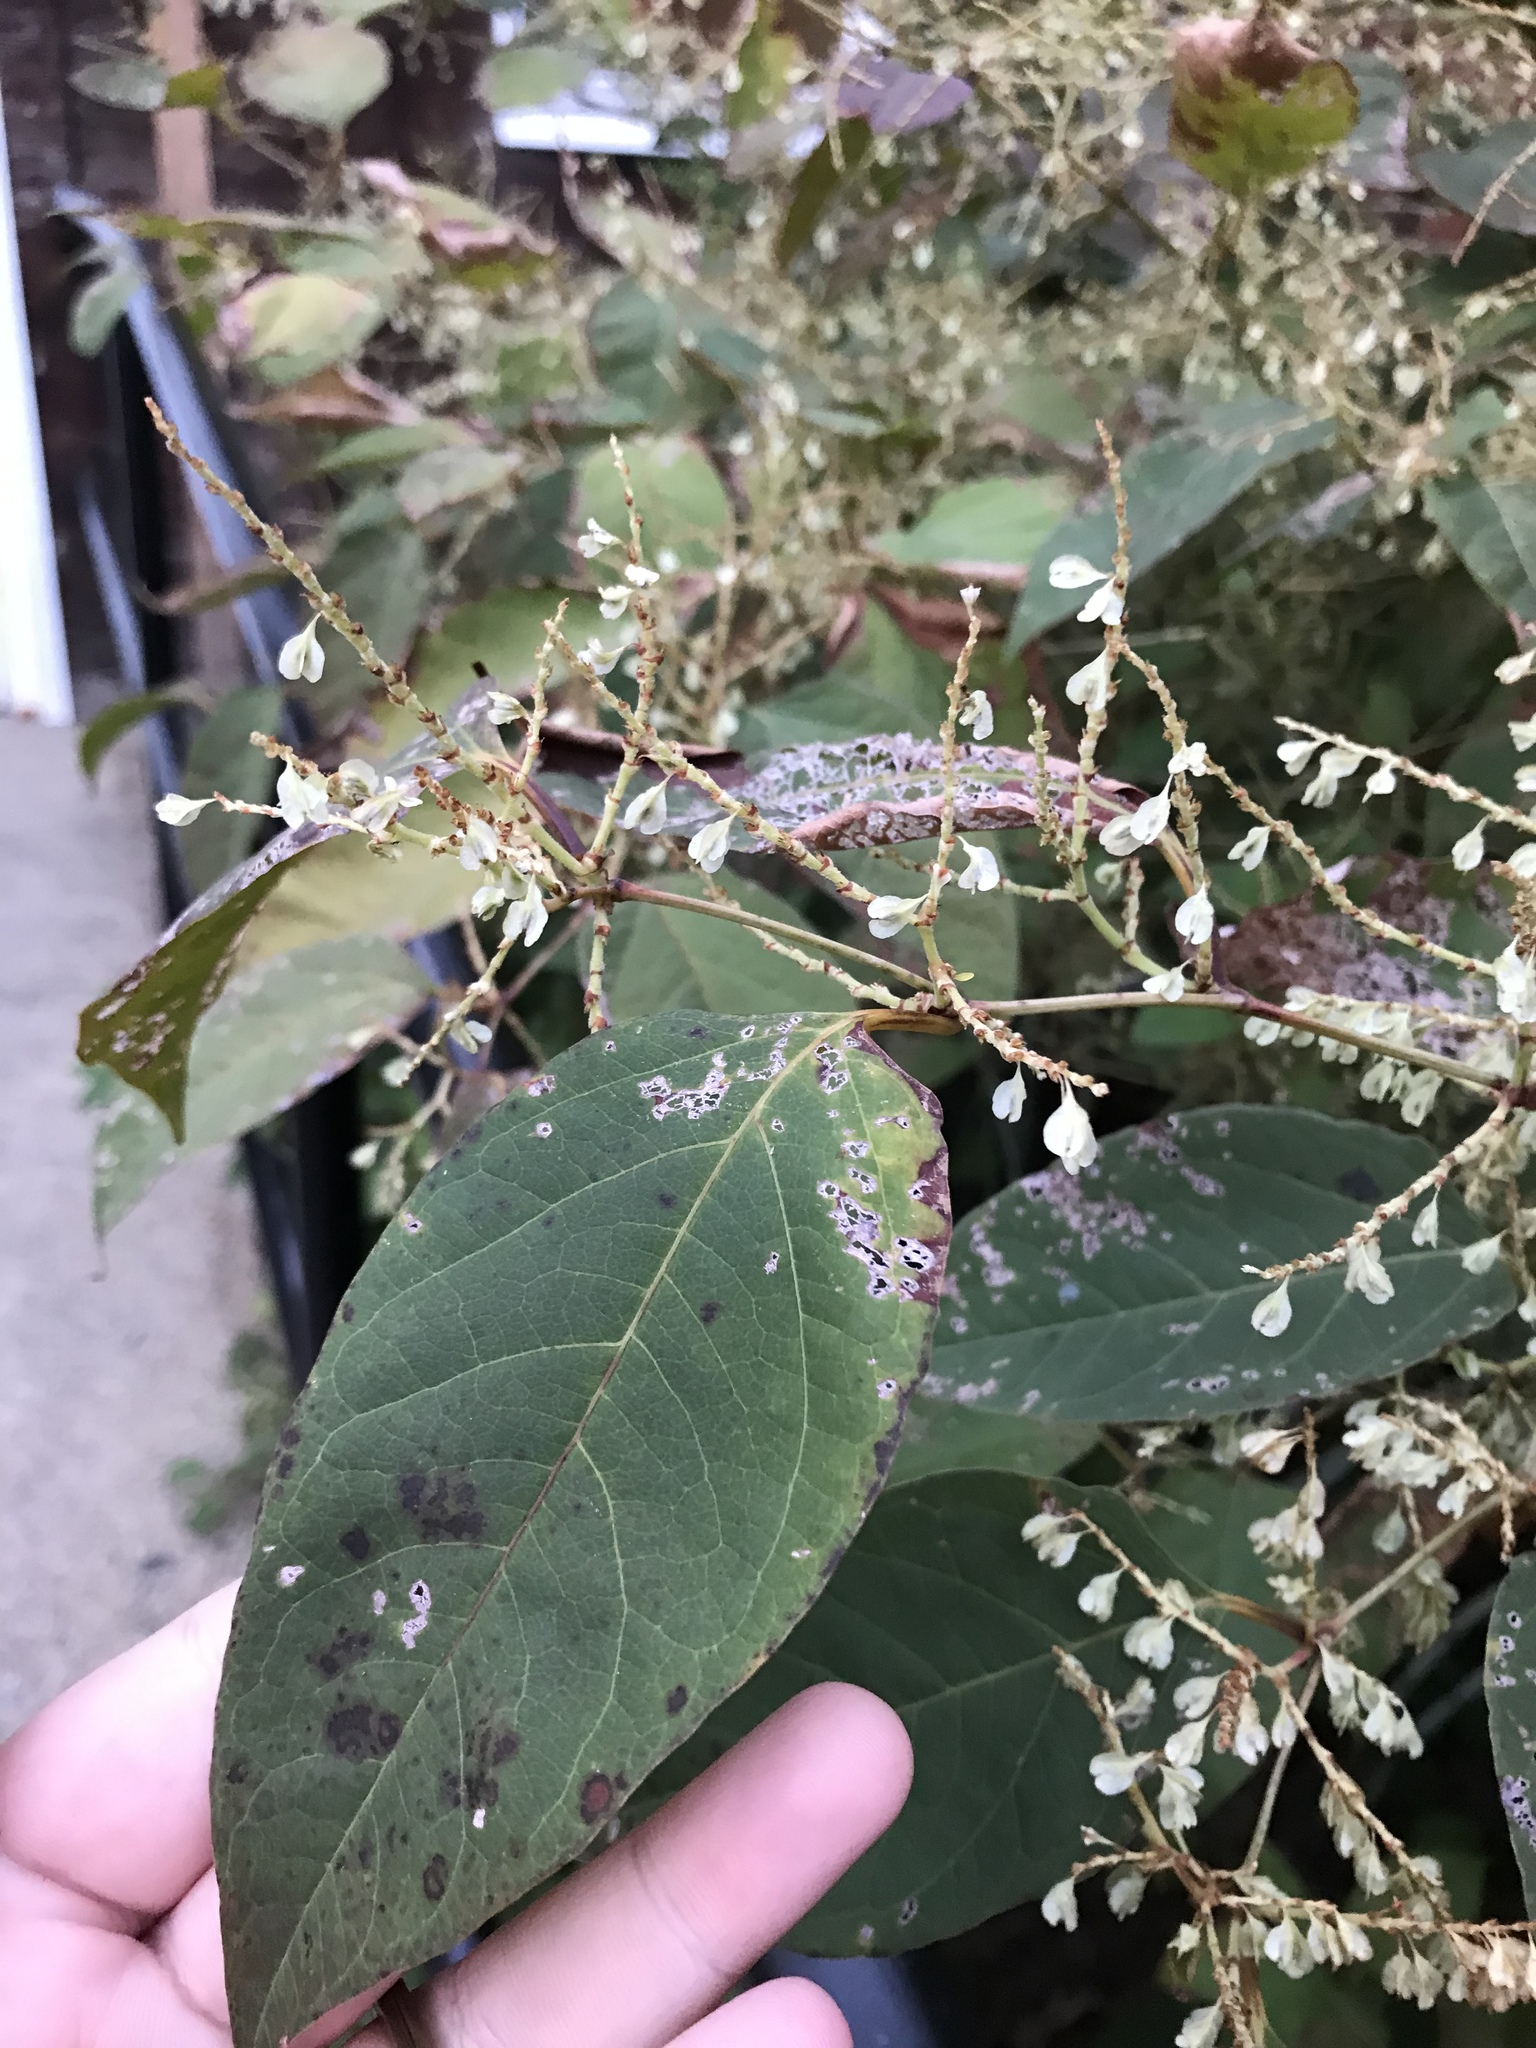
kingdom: Plantae
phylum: Tracheophyta
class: Magnoliopsida
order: Caryophyllales
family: Polygonaceae
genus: Reynoutria
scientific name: Reynoutria japonica
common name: Japanese knotweed
